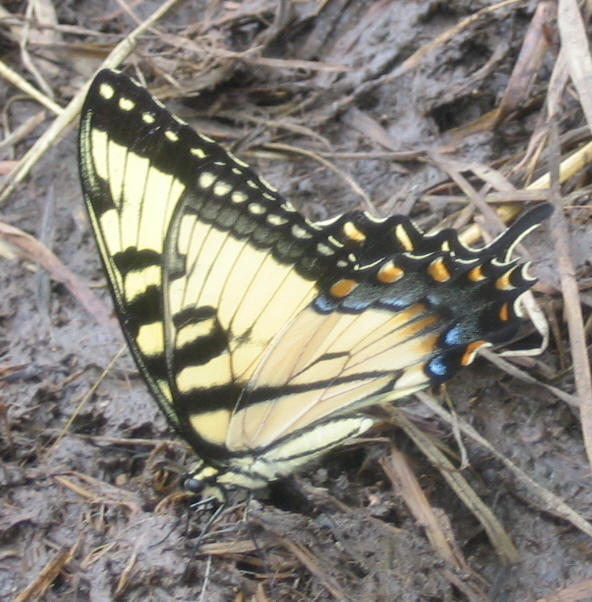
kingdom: Animalia
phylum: Arthropoda
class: Insecta
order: Lepidoptera
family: Papilionidae
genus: Papilio
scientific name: Papilio glaucus
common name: Tiger swallowtail
